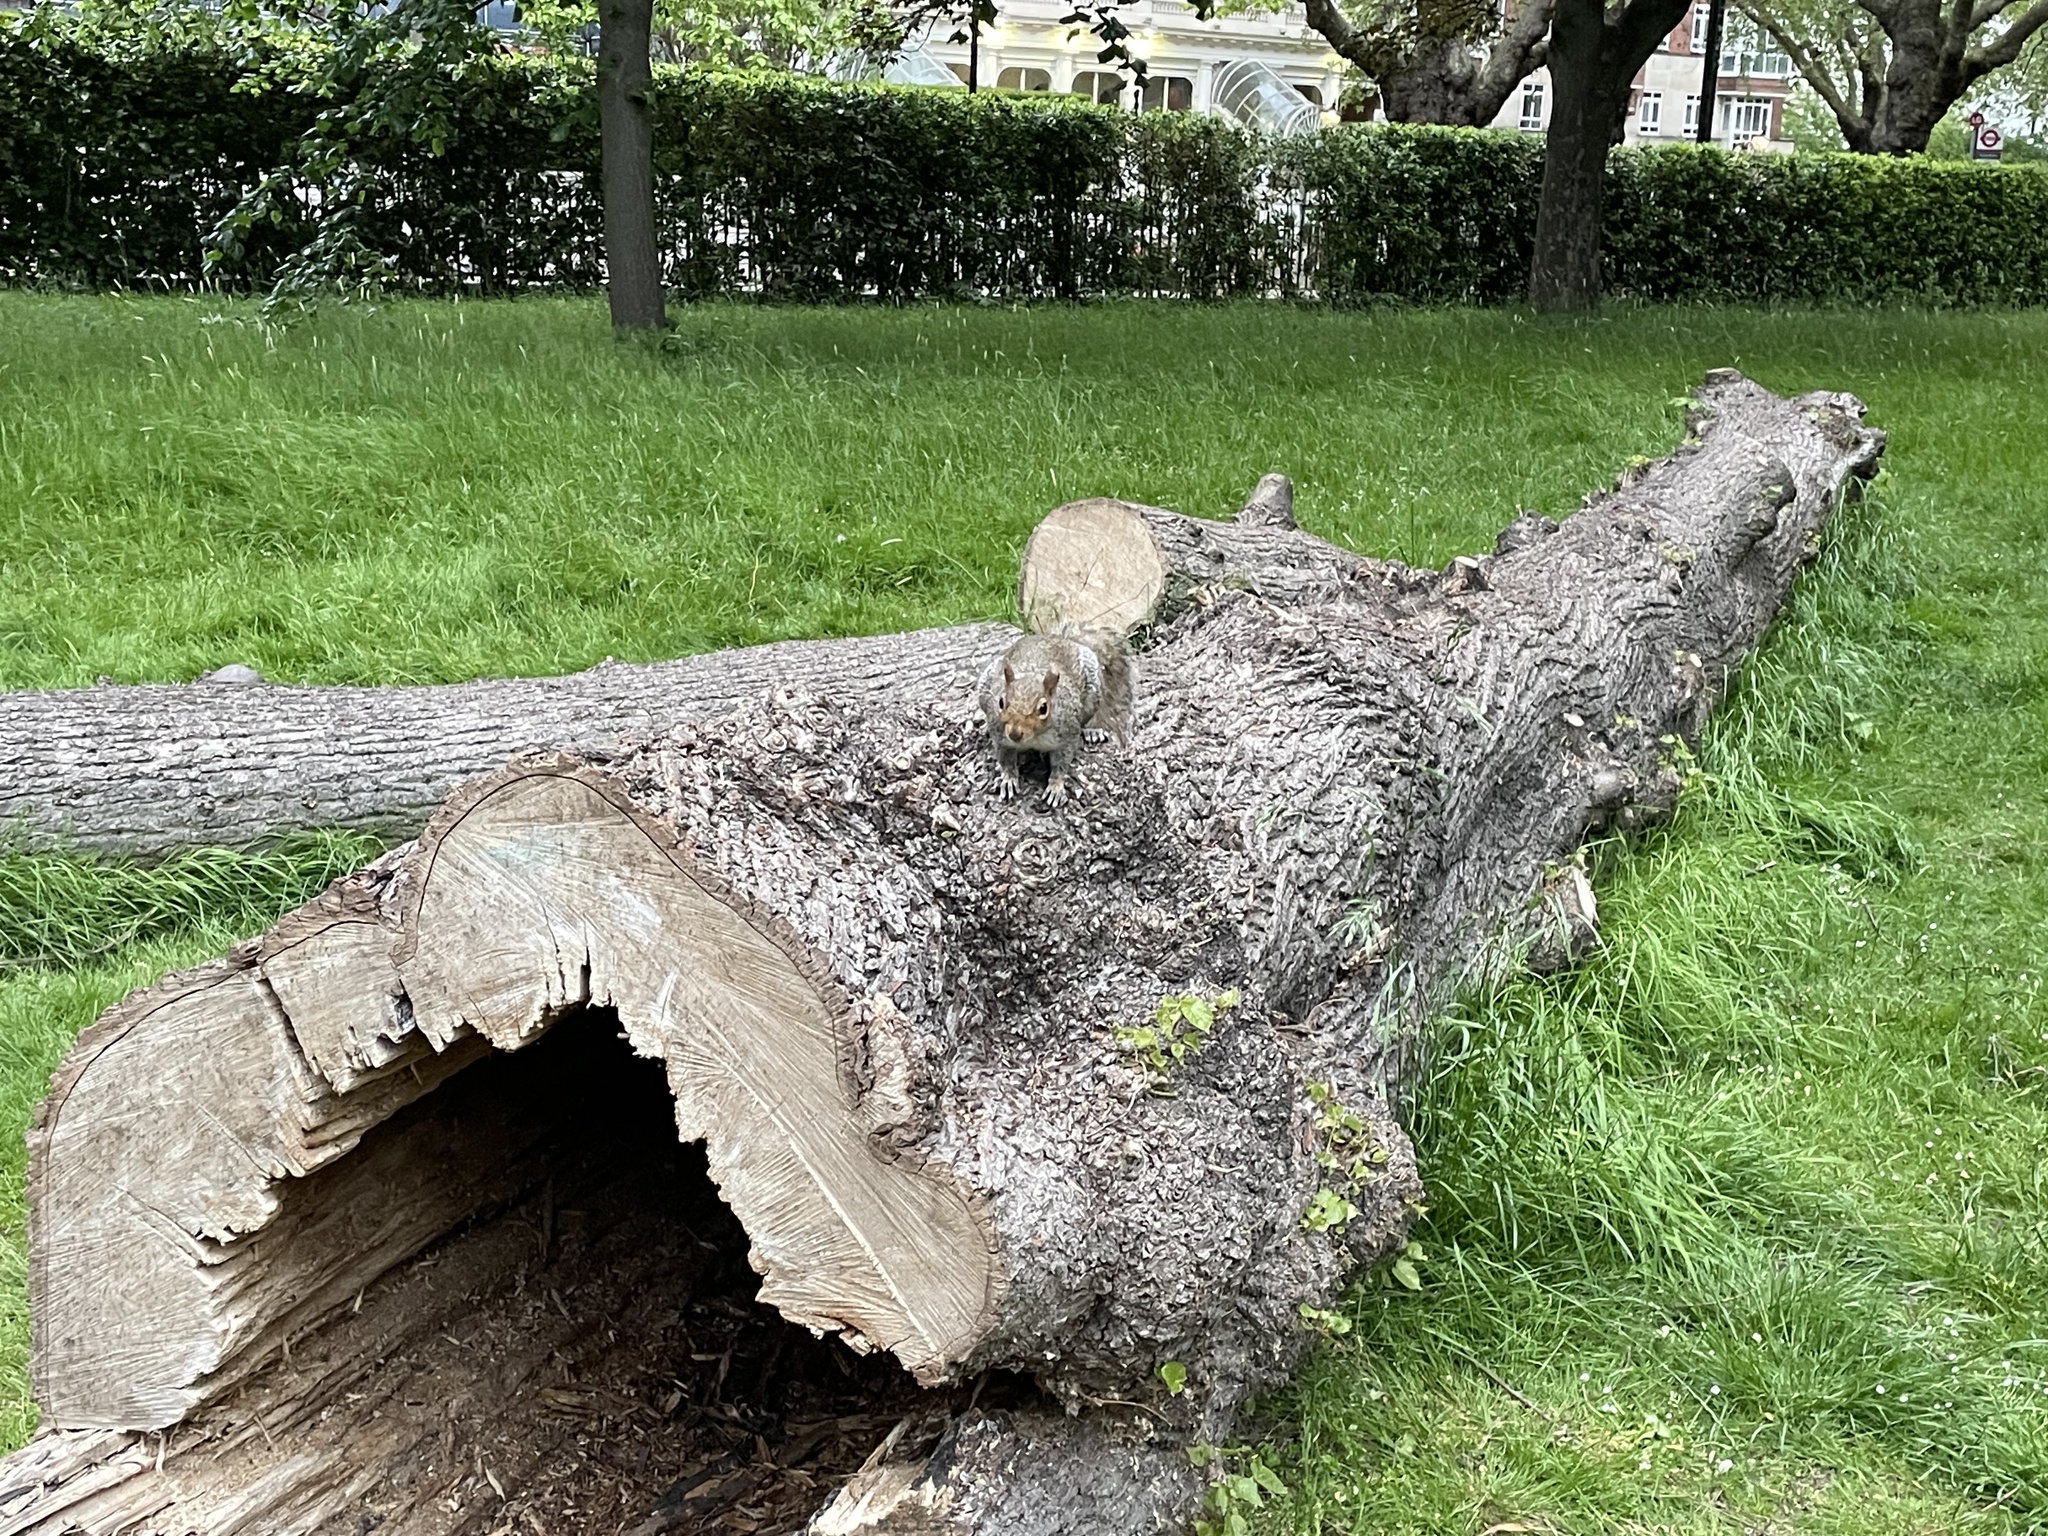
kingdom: Animalia
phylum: Chordata
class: Mammalia
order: Rodentia
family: Sciuridae
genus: Sciurus
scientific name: Sciurus carolinensis
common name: Eastern gray squirrel
